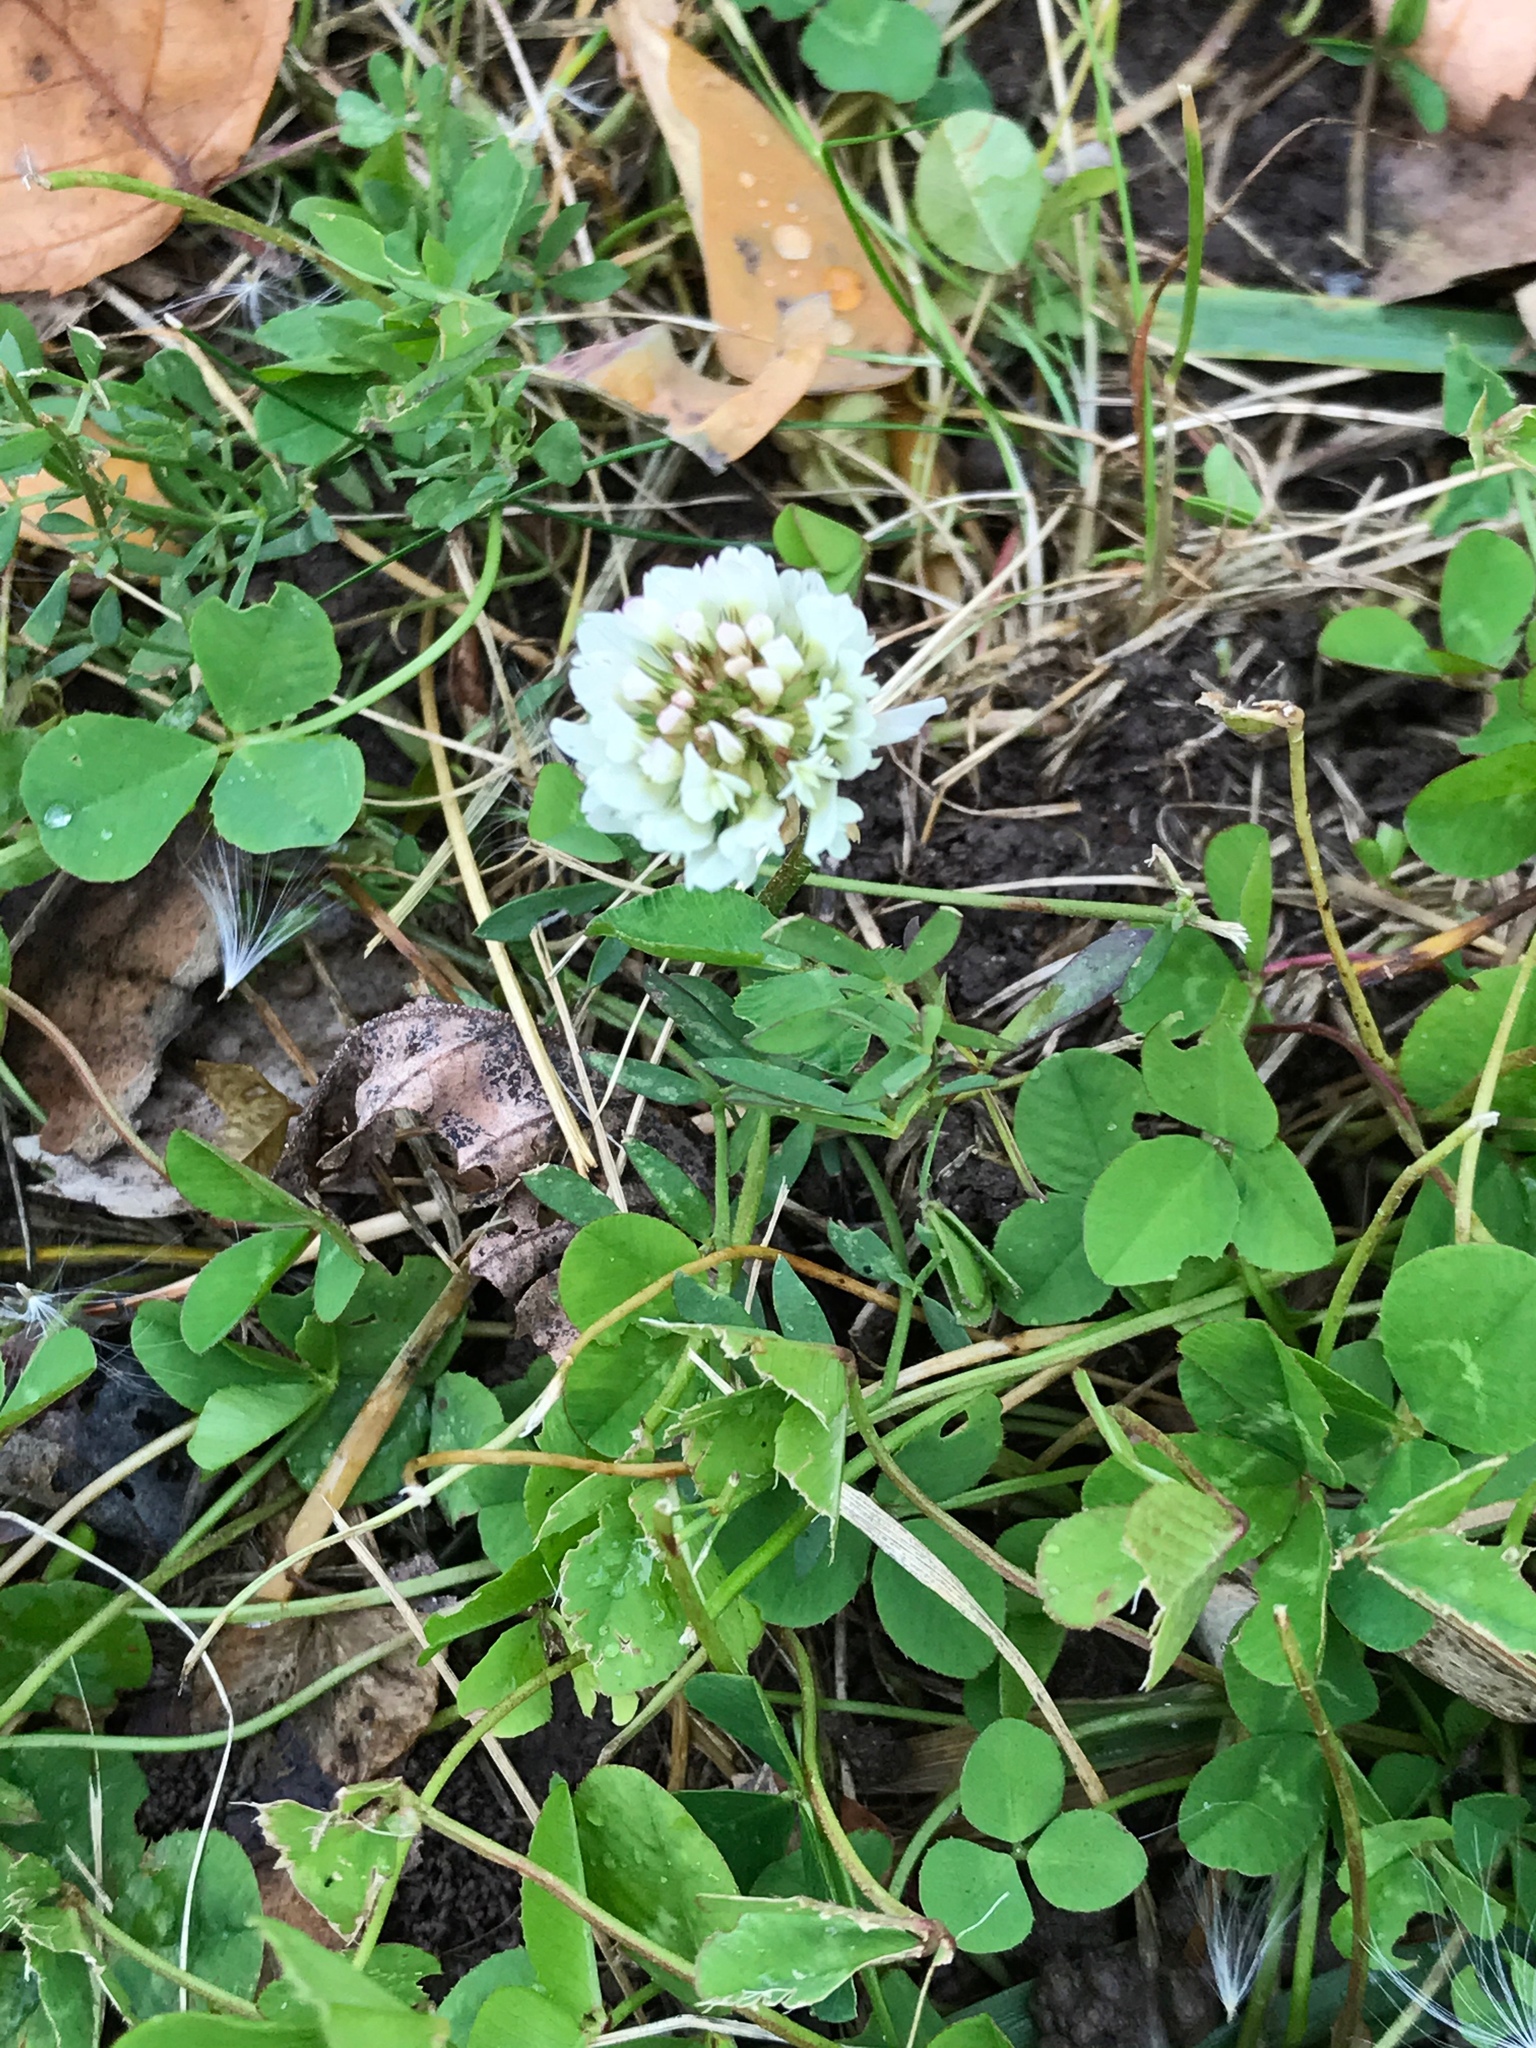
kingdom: Plantae
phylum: Tracheophyta
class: Magnoliopsida
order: Fabales
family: Fabaceae
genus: Trifolium
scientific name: Trifolium repens
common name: White clover
